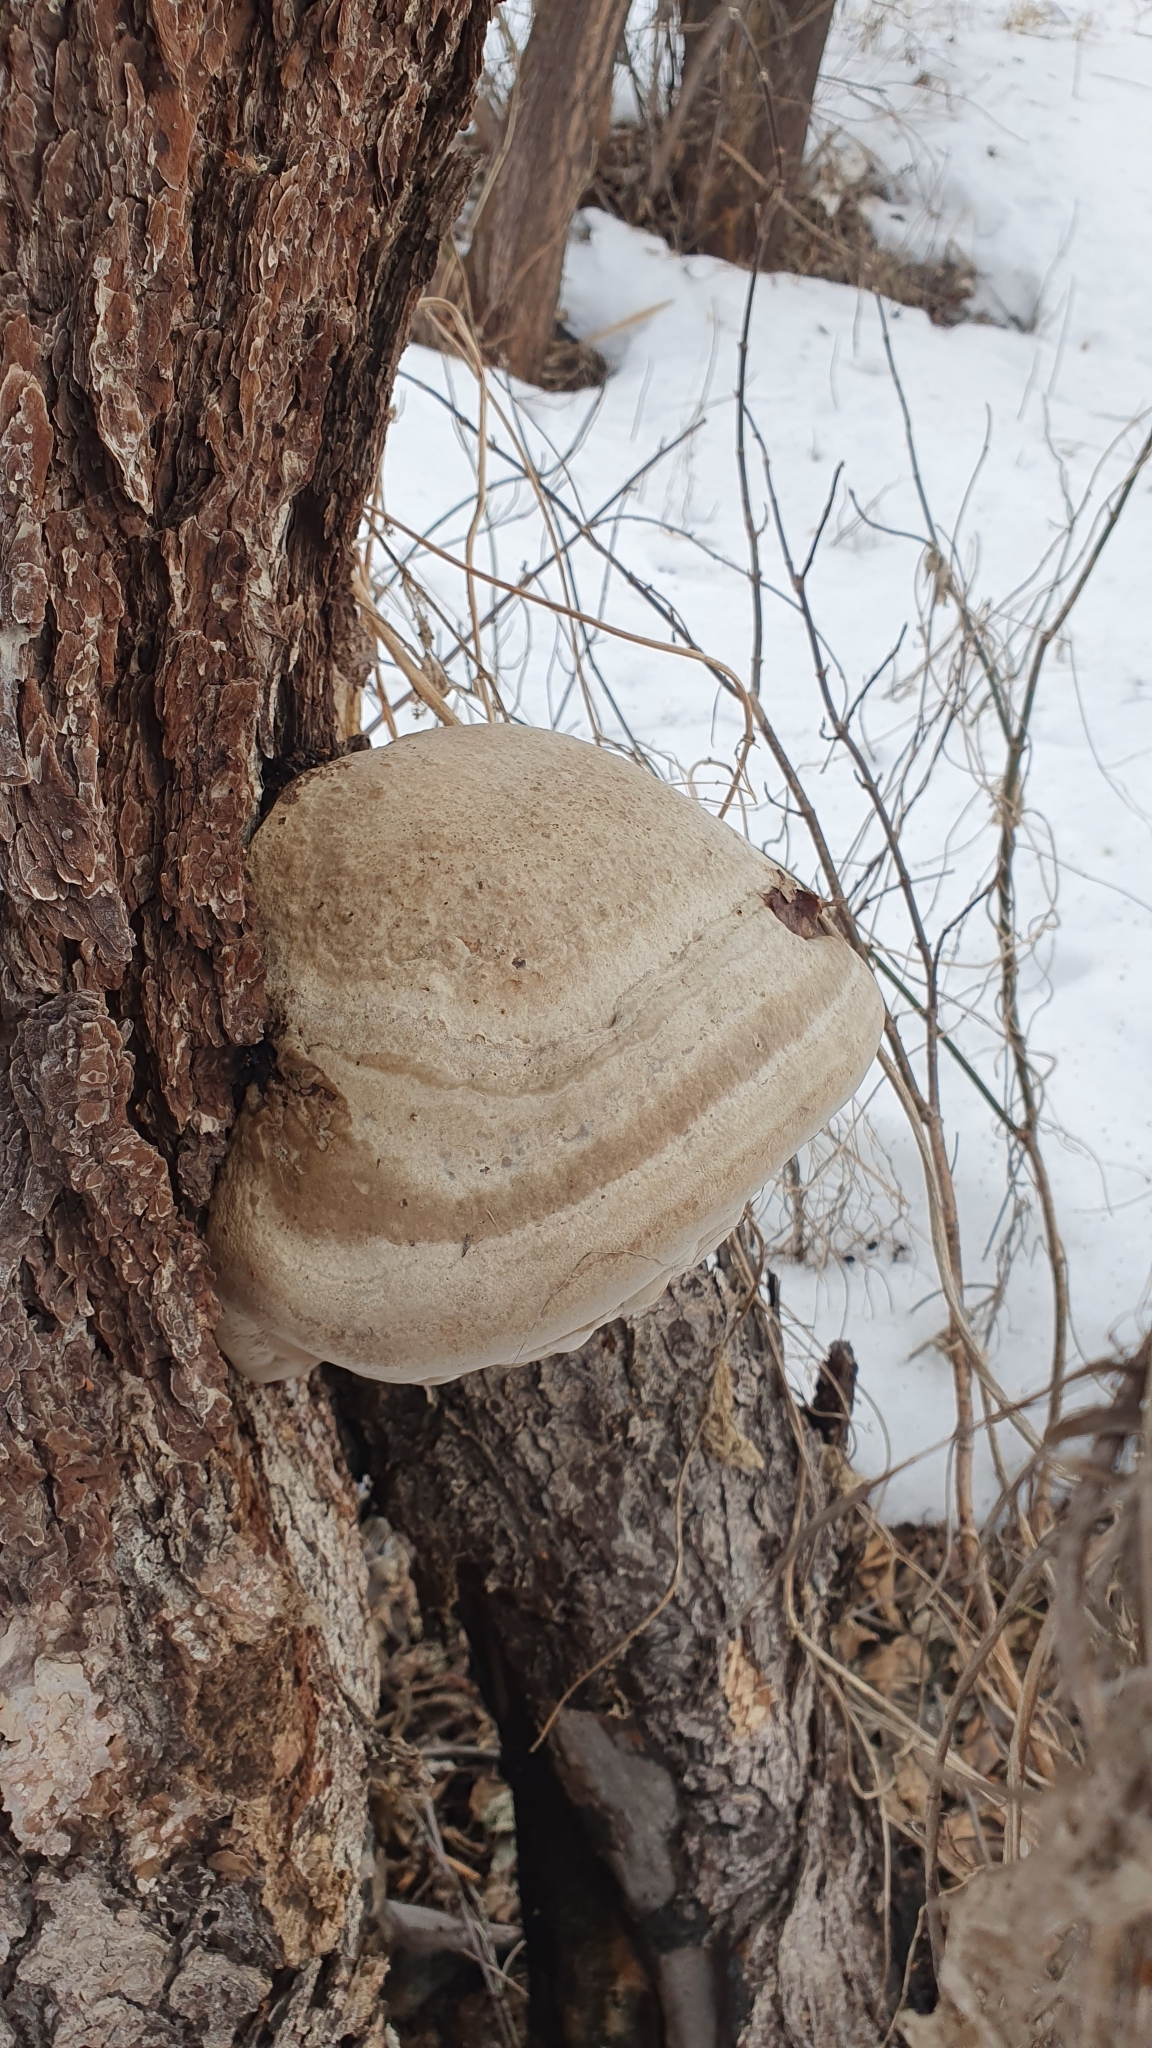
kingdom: Fungi
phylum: Basidiomycota
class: Agaricomycetes
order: Polyporales
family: Polyporaceae
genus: Fomes
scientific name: Fomes fomentarius
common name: Hoof fungus
